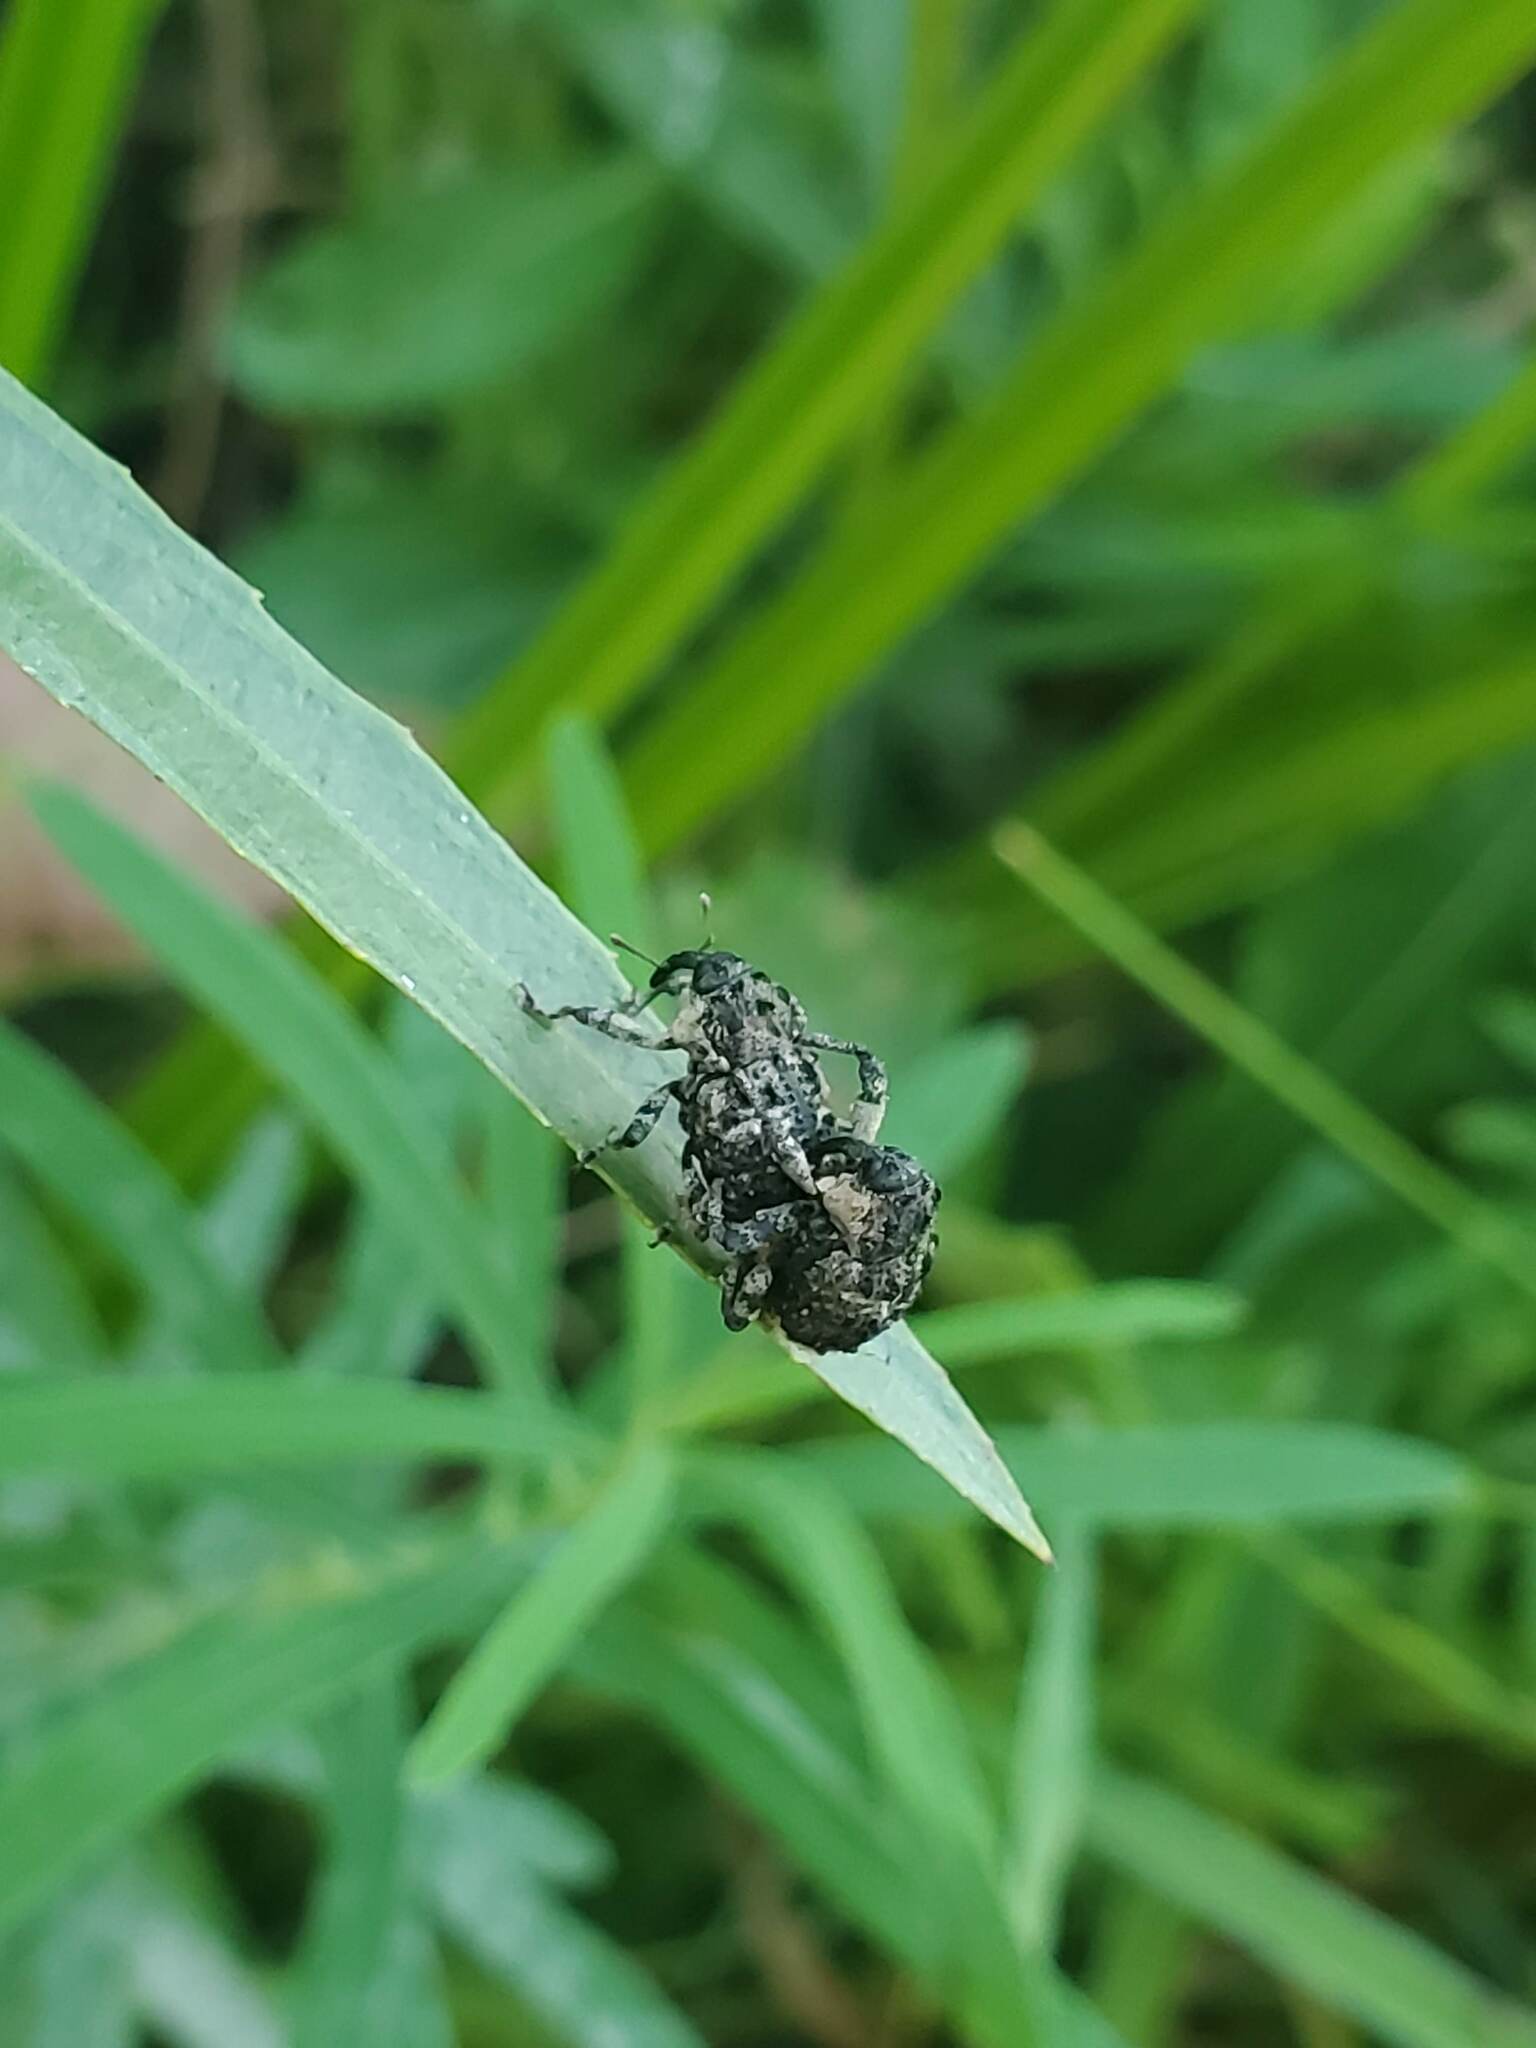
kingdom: Animalia
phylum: Arthropoda
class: Insecta
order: Coleoptera
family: Curculionidae
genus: Cryptorhynchus
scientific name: Cryptorhynchus lapathi
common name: Weevil
